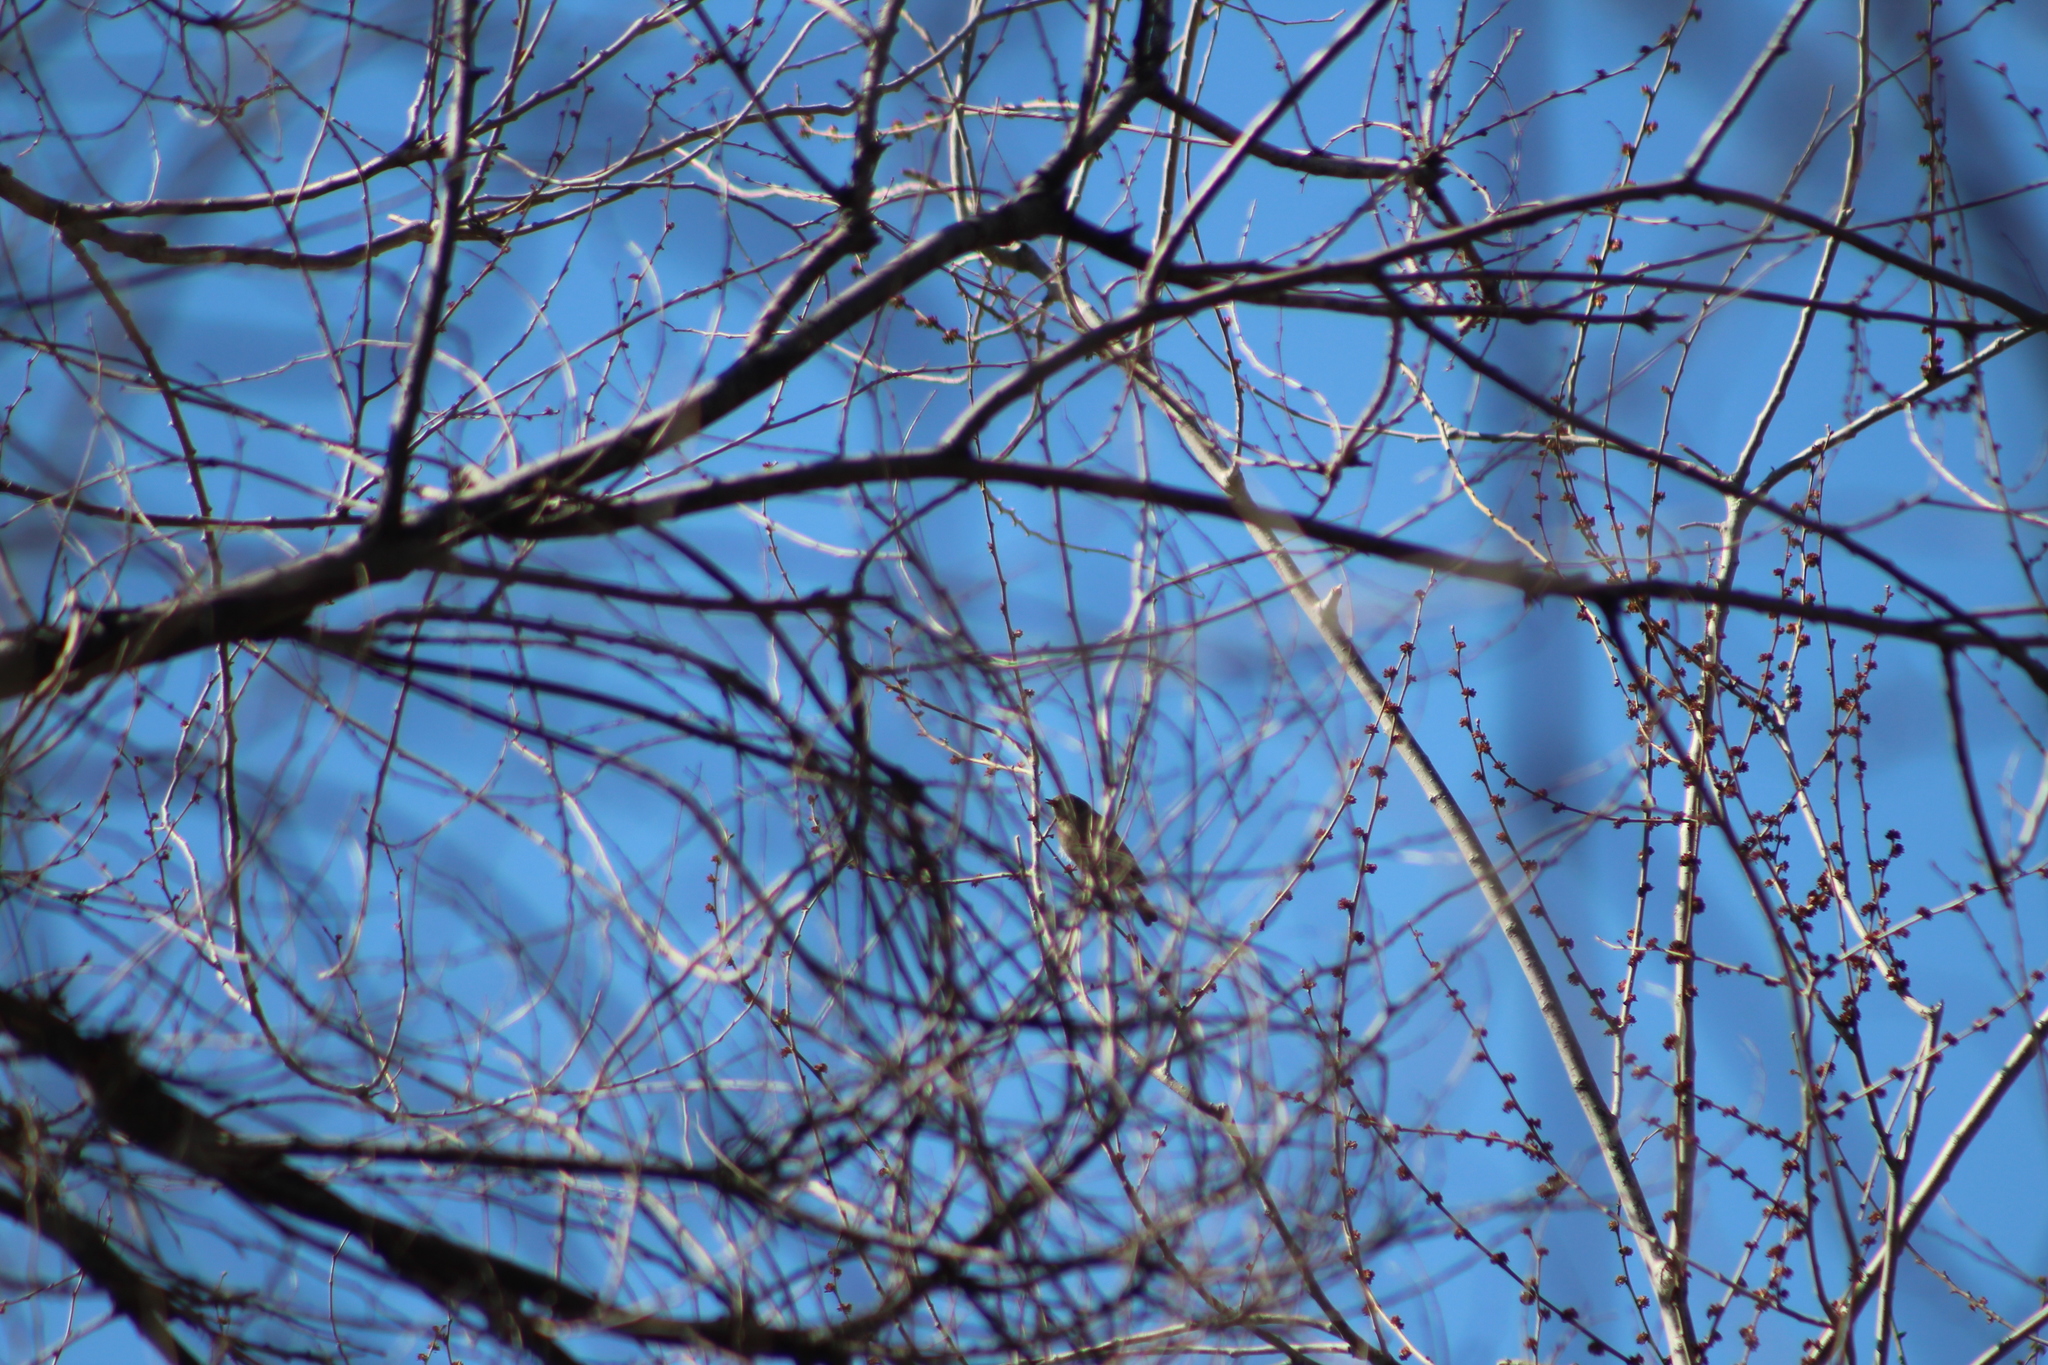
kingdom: Animalia
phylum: Chordata
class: Aves
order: Passeriformes
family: Regulidae
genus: Regulus
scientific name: Regulus calendula
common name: Ruby-crowned kinglet
